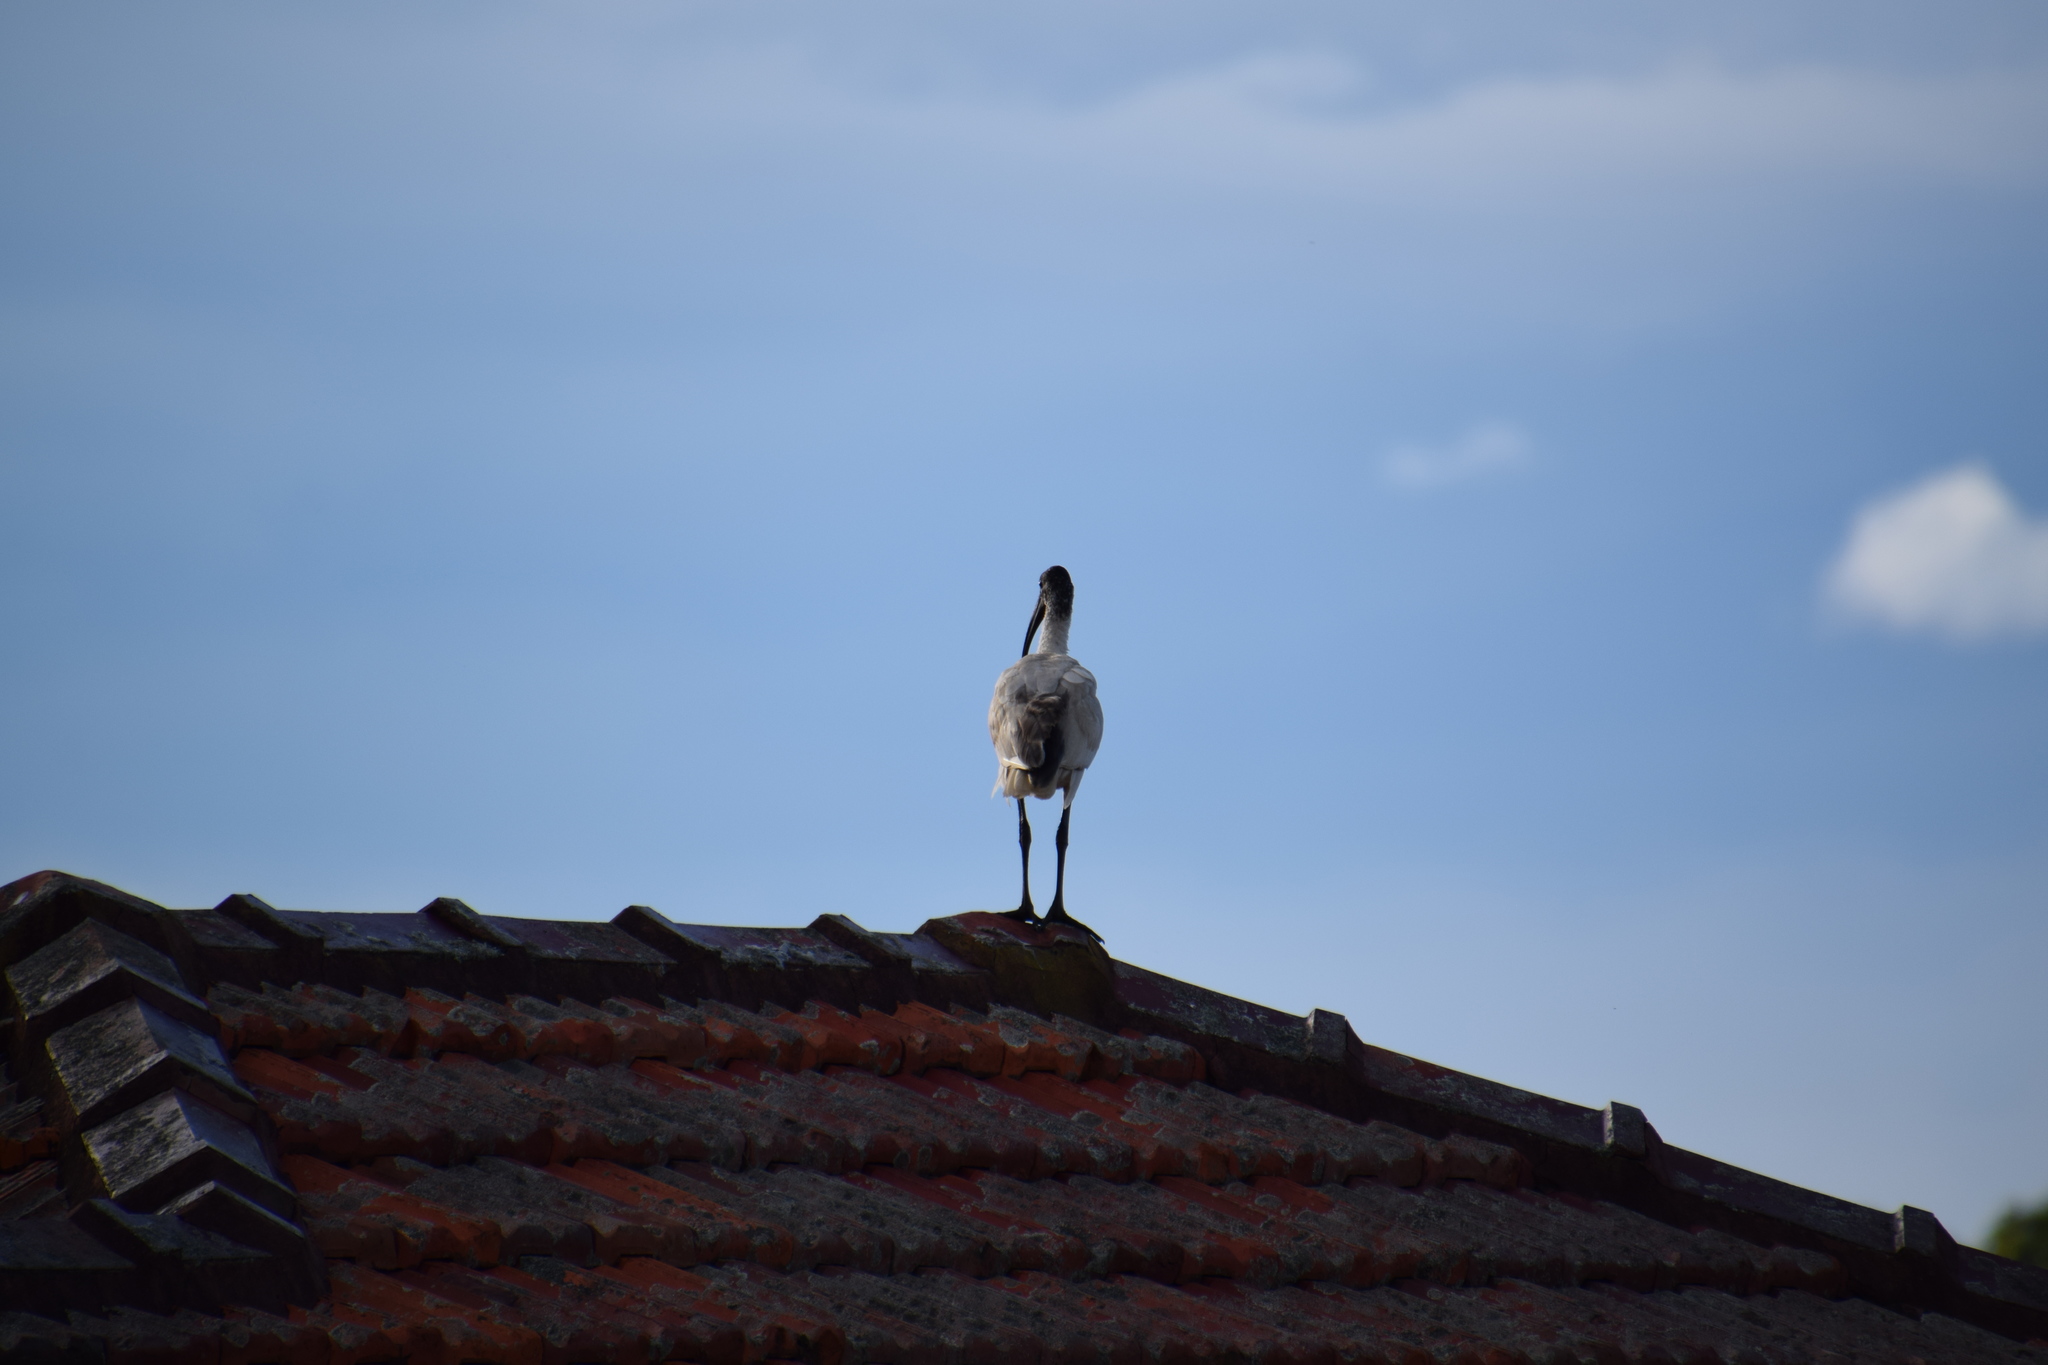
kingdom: Animalia
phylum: Chordata
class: Aves
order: Pelecaniformes
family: Threskiornithidae
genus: Threskiornis
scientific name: Threskiornis molucca
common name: Australian white ibis
